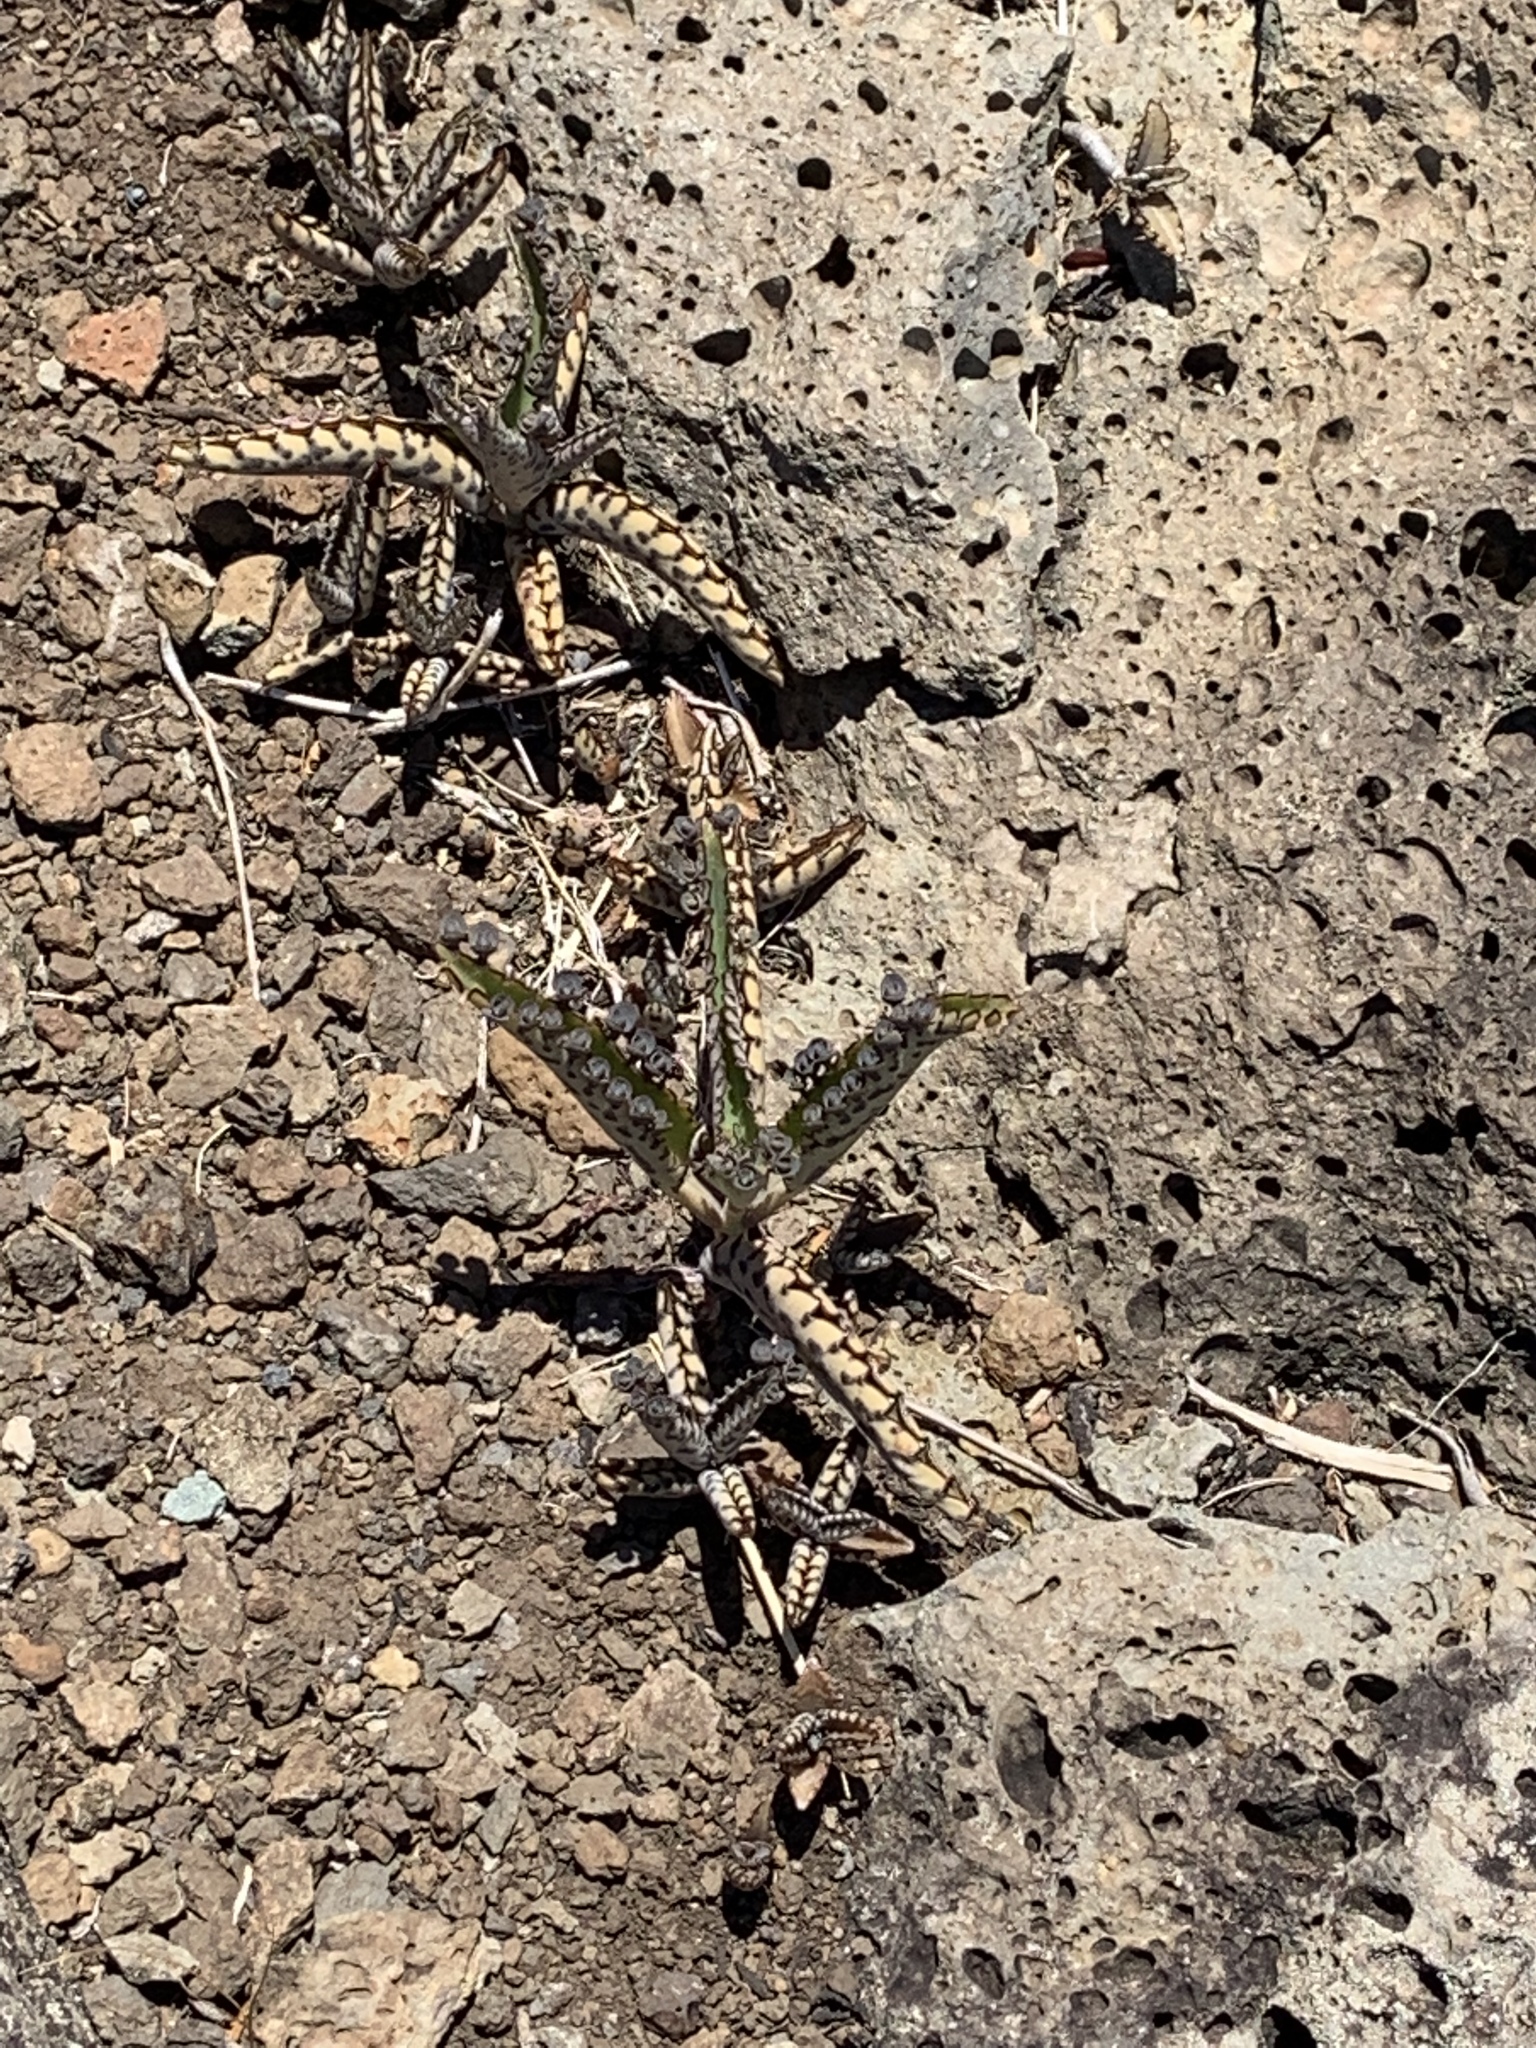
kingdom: Plantae
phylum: Tracheophyta
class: Magnoliopsida
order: Saxifragales
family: Crassulaceae
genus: Kalanchoe
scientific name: Kalanchoe daigremontiana
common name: Devil's backbone
